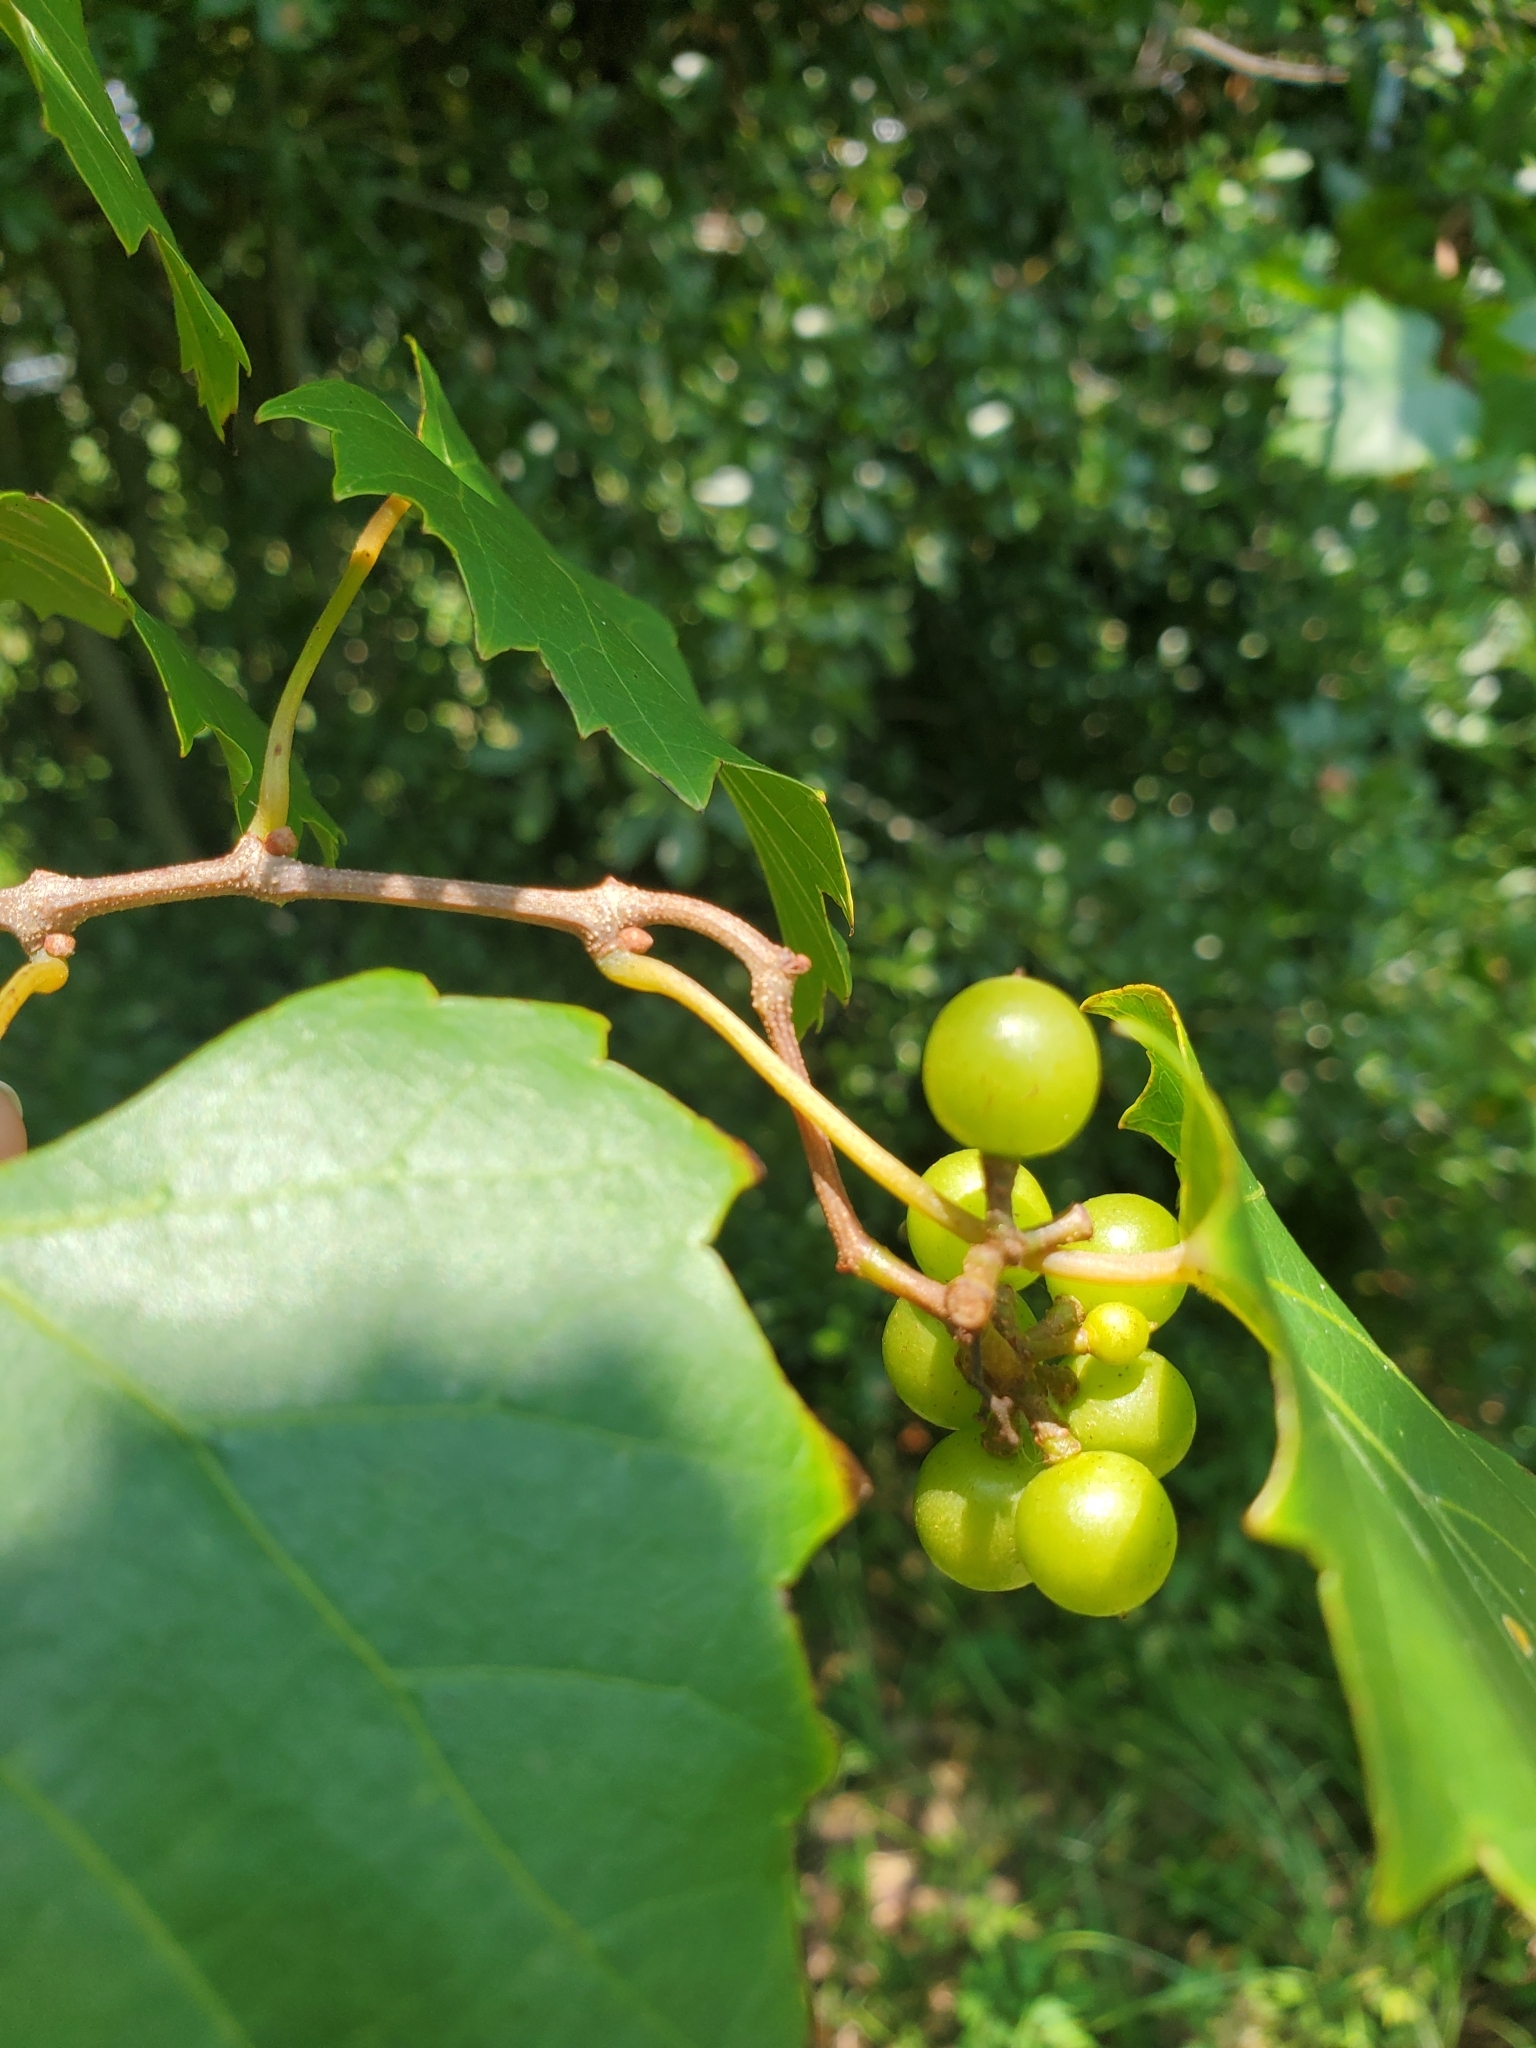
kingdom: Plantae
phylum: Tracheophyta
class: Magnoliopsida
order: Vitales
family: Vitaceae
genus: Vitis
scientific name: Vitis rotundifolia
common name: Muscadine grape
